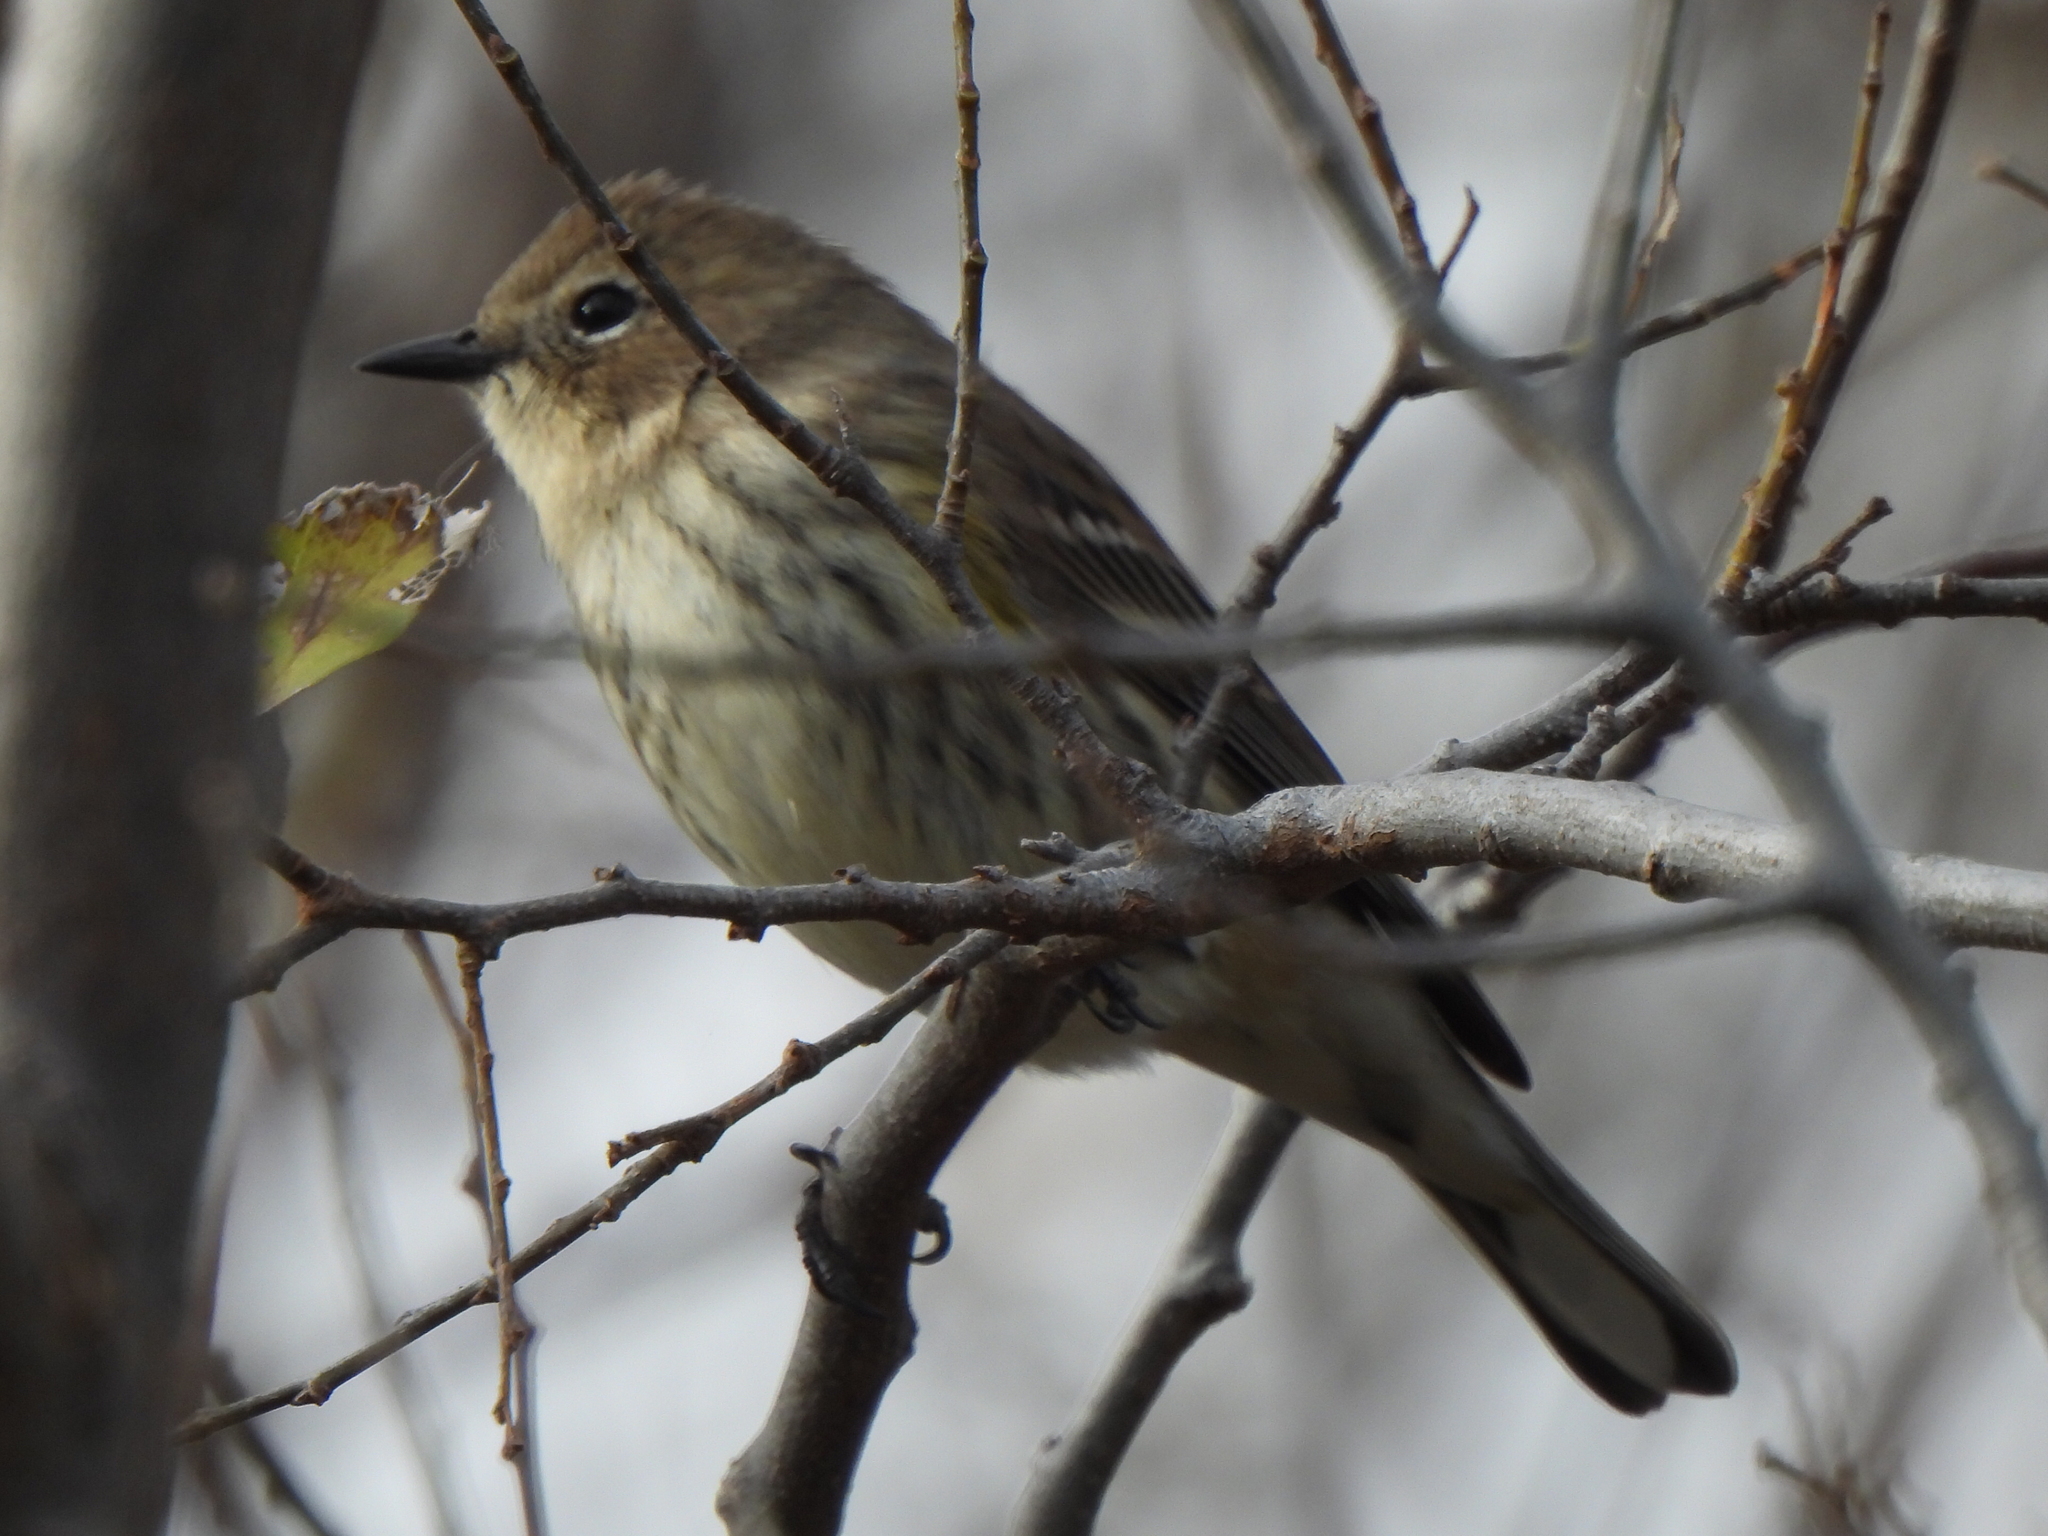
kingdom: Animalia
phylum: Chordata
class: Aves
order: Passeriformes
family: Parulidae
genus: Setophaga
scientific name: Setophaga coronata
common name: Myrtle warbler
